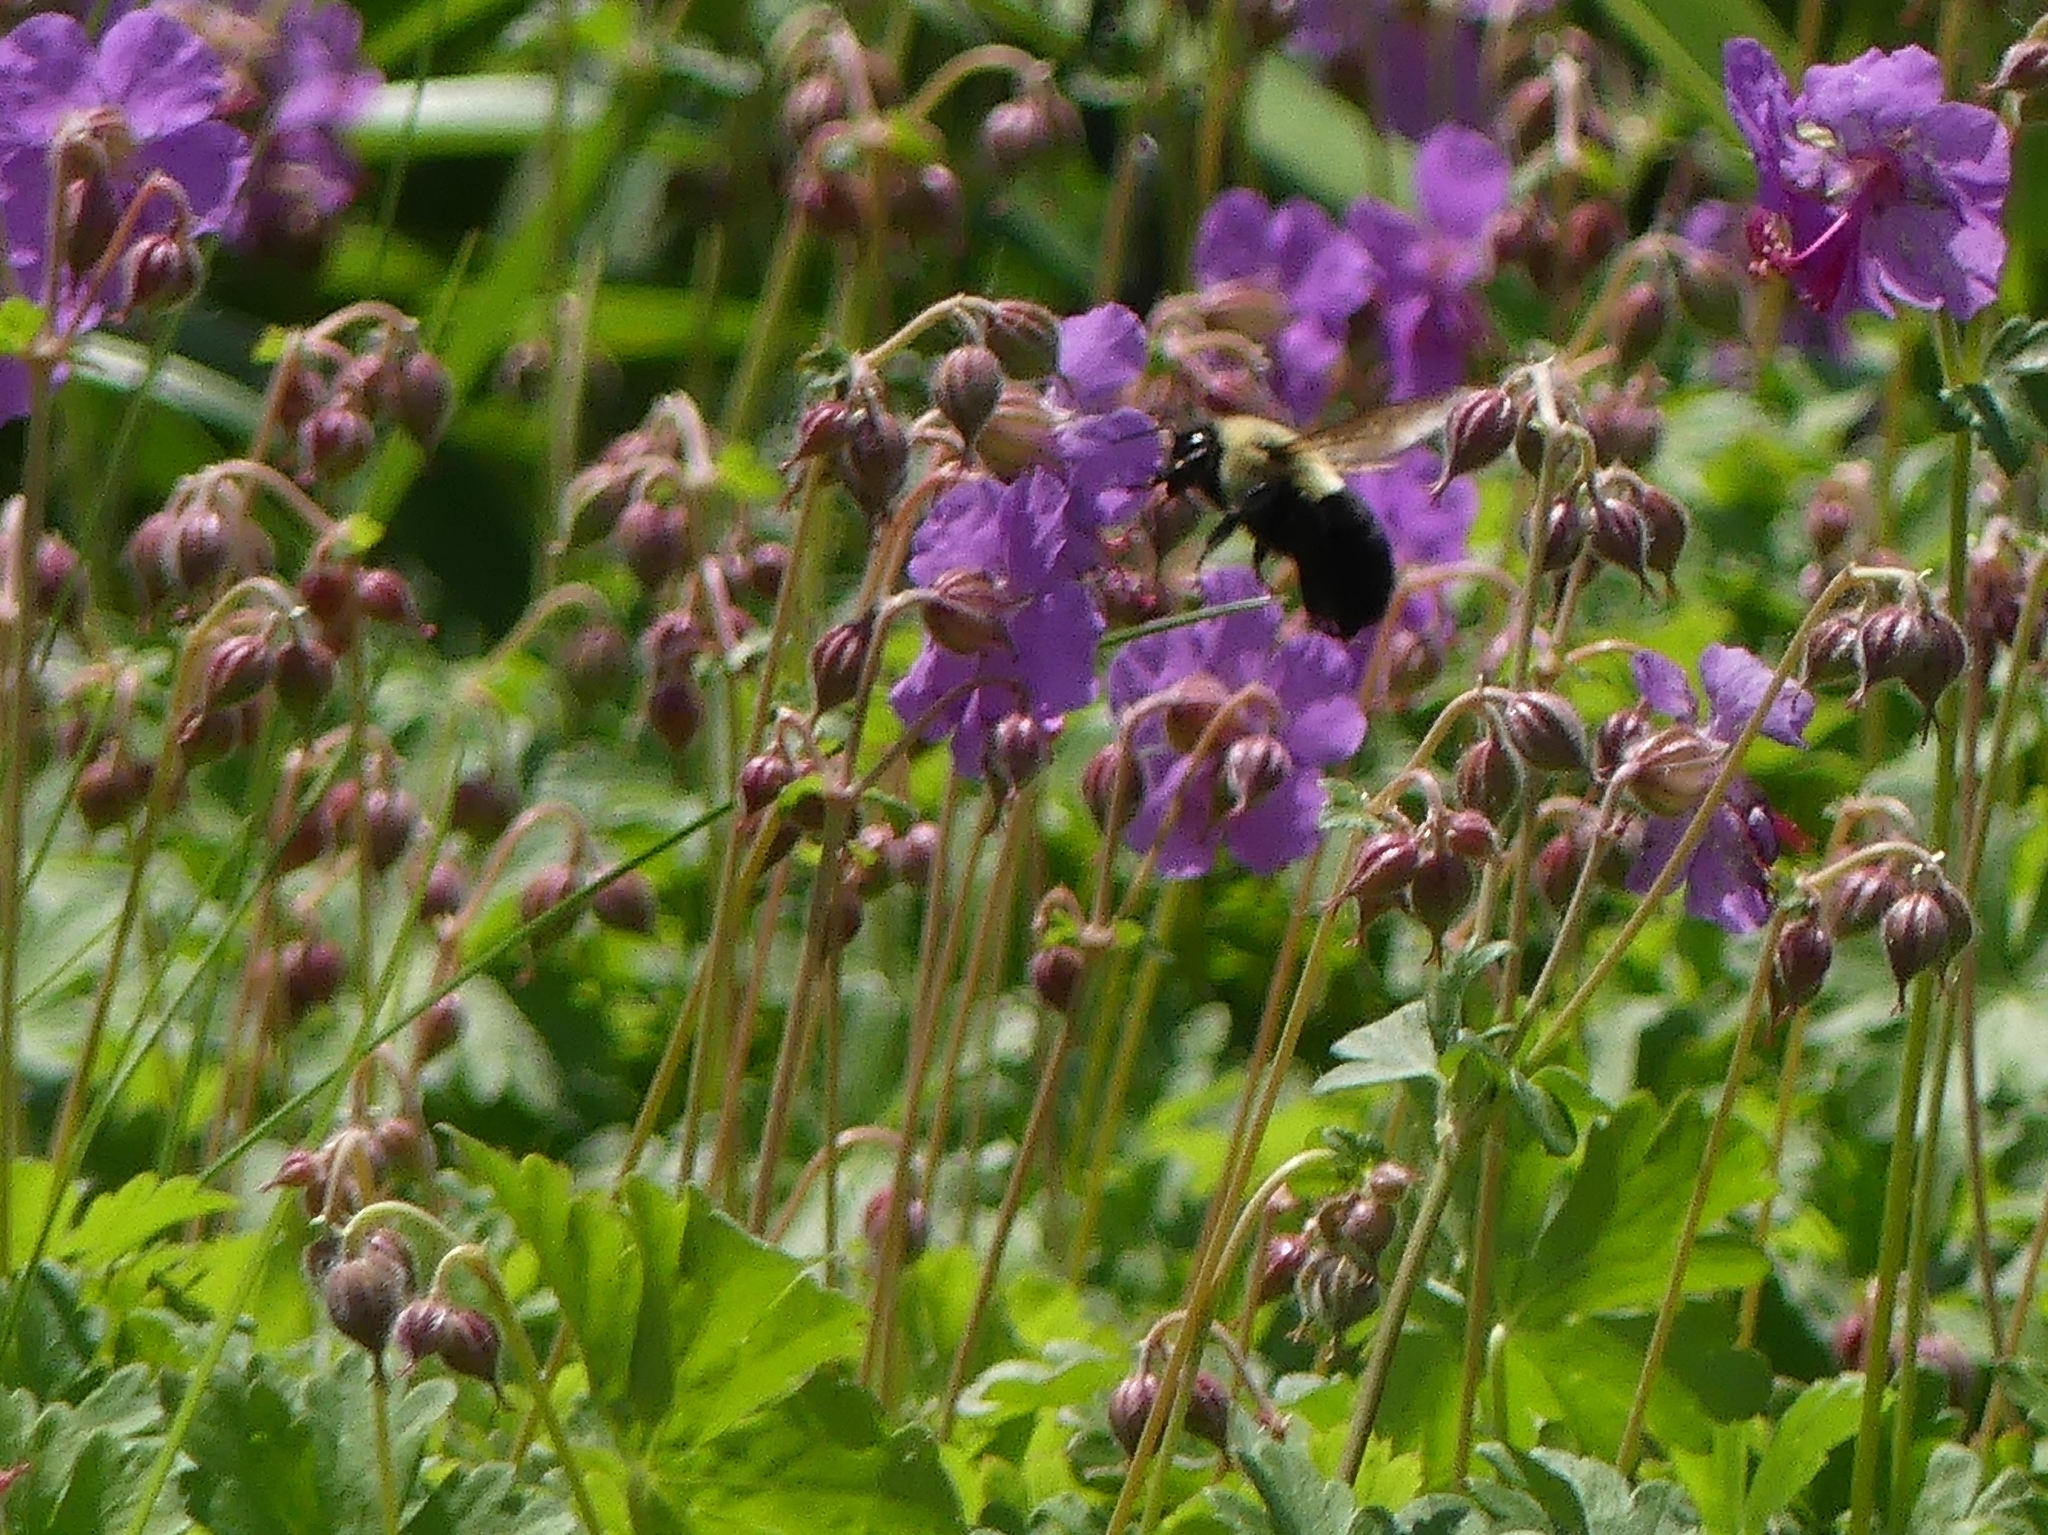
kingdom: Animalia
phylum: Arthropoda
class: Insecta
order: Hymenoptera
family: Apidae
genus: Bombus
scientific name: Bombus impatiens
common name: Common eastern bumble bee
